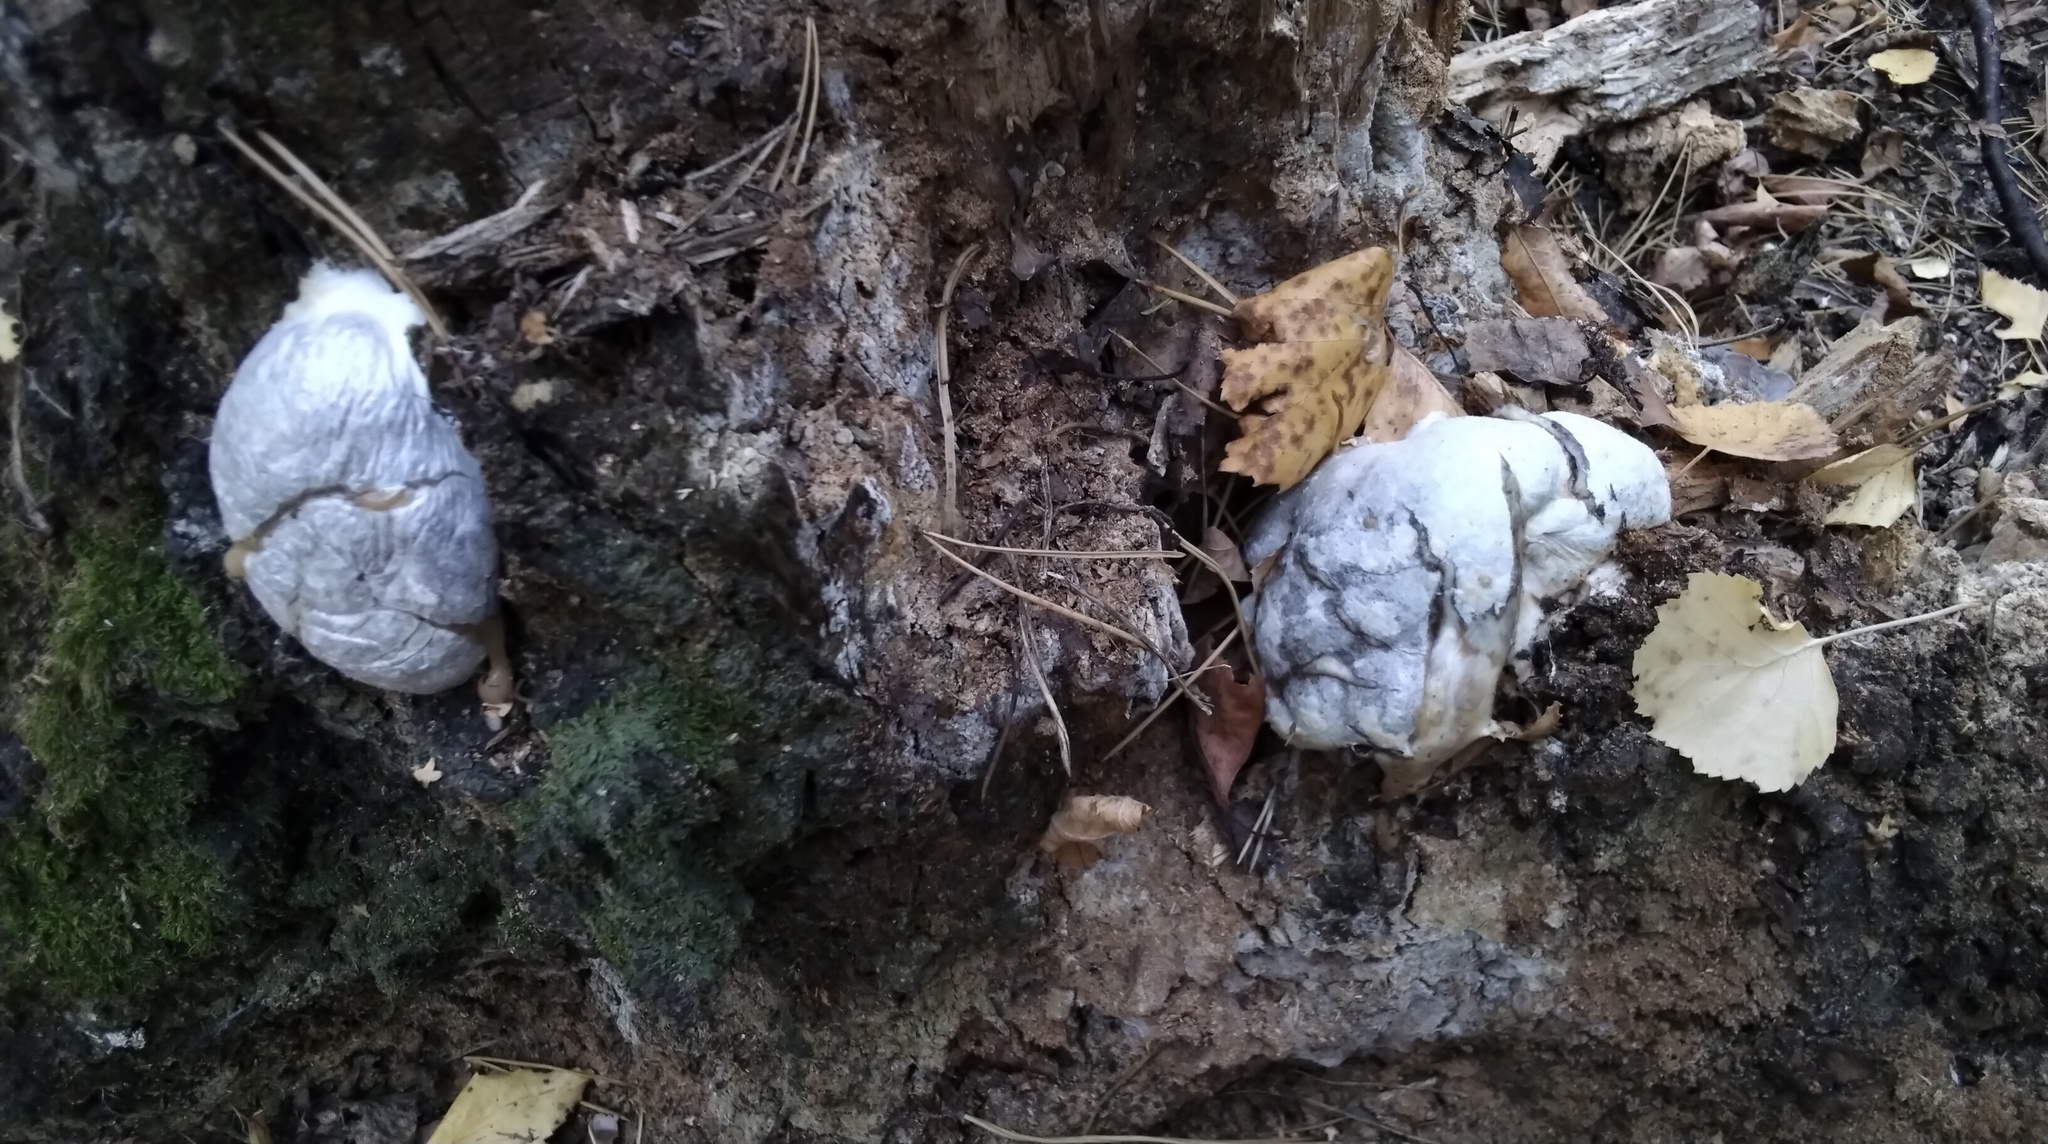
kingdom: Protozoa
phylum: Mycetozoa
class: Myxomycetes
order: Cribrariales
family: Tubiferaceae
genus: Reticularia
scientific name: Reticularia lycoperdon
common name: False puffball
